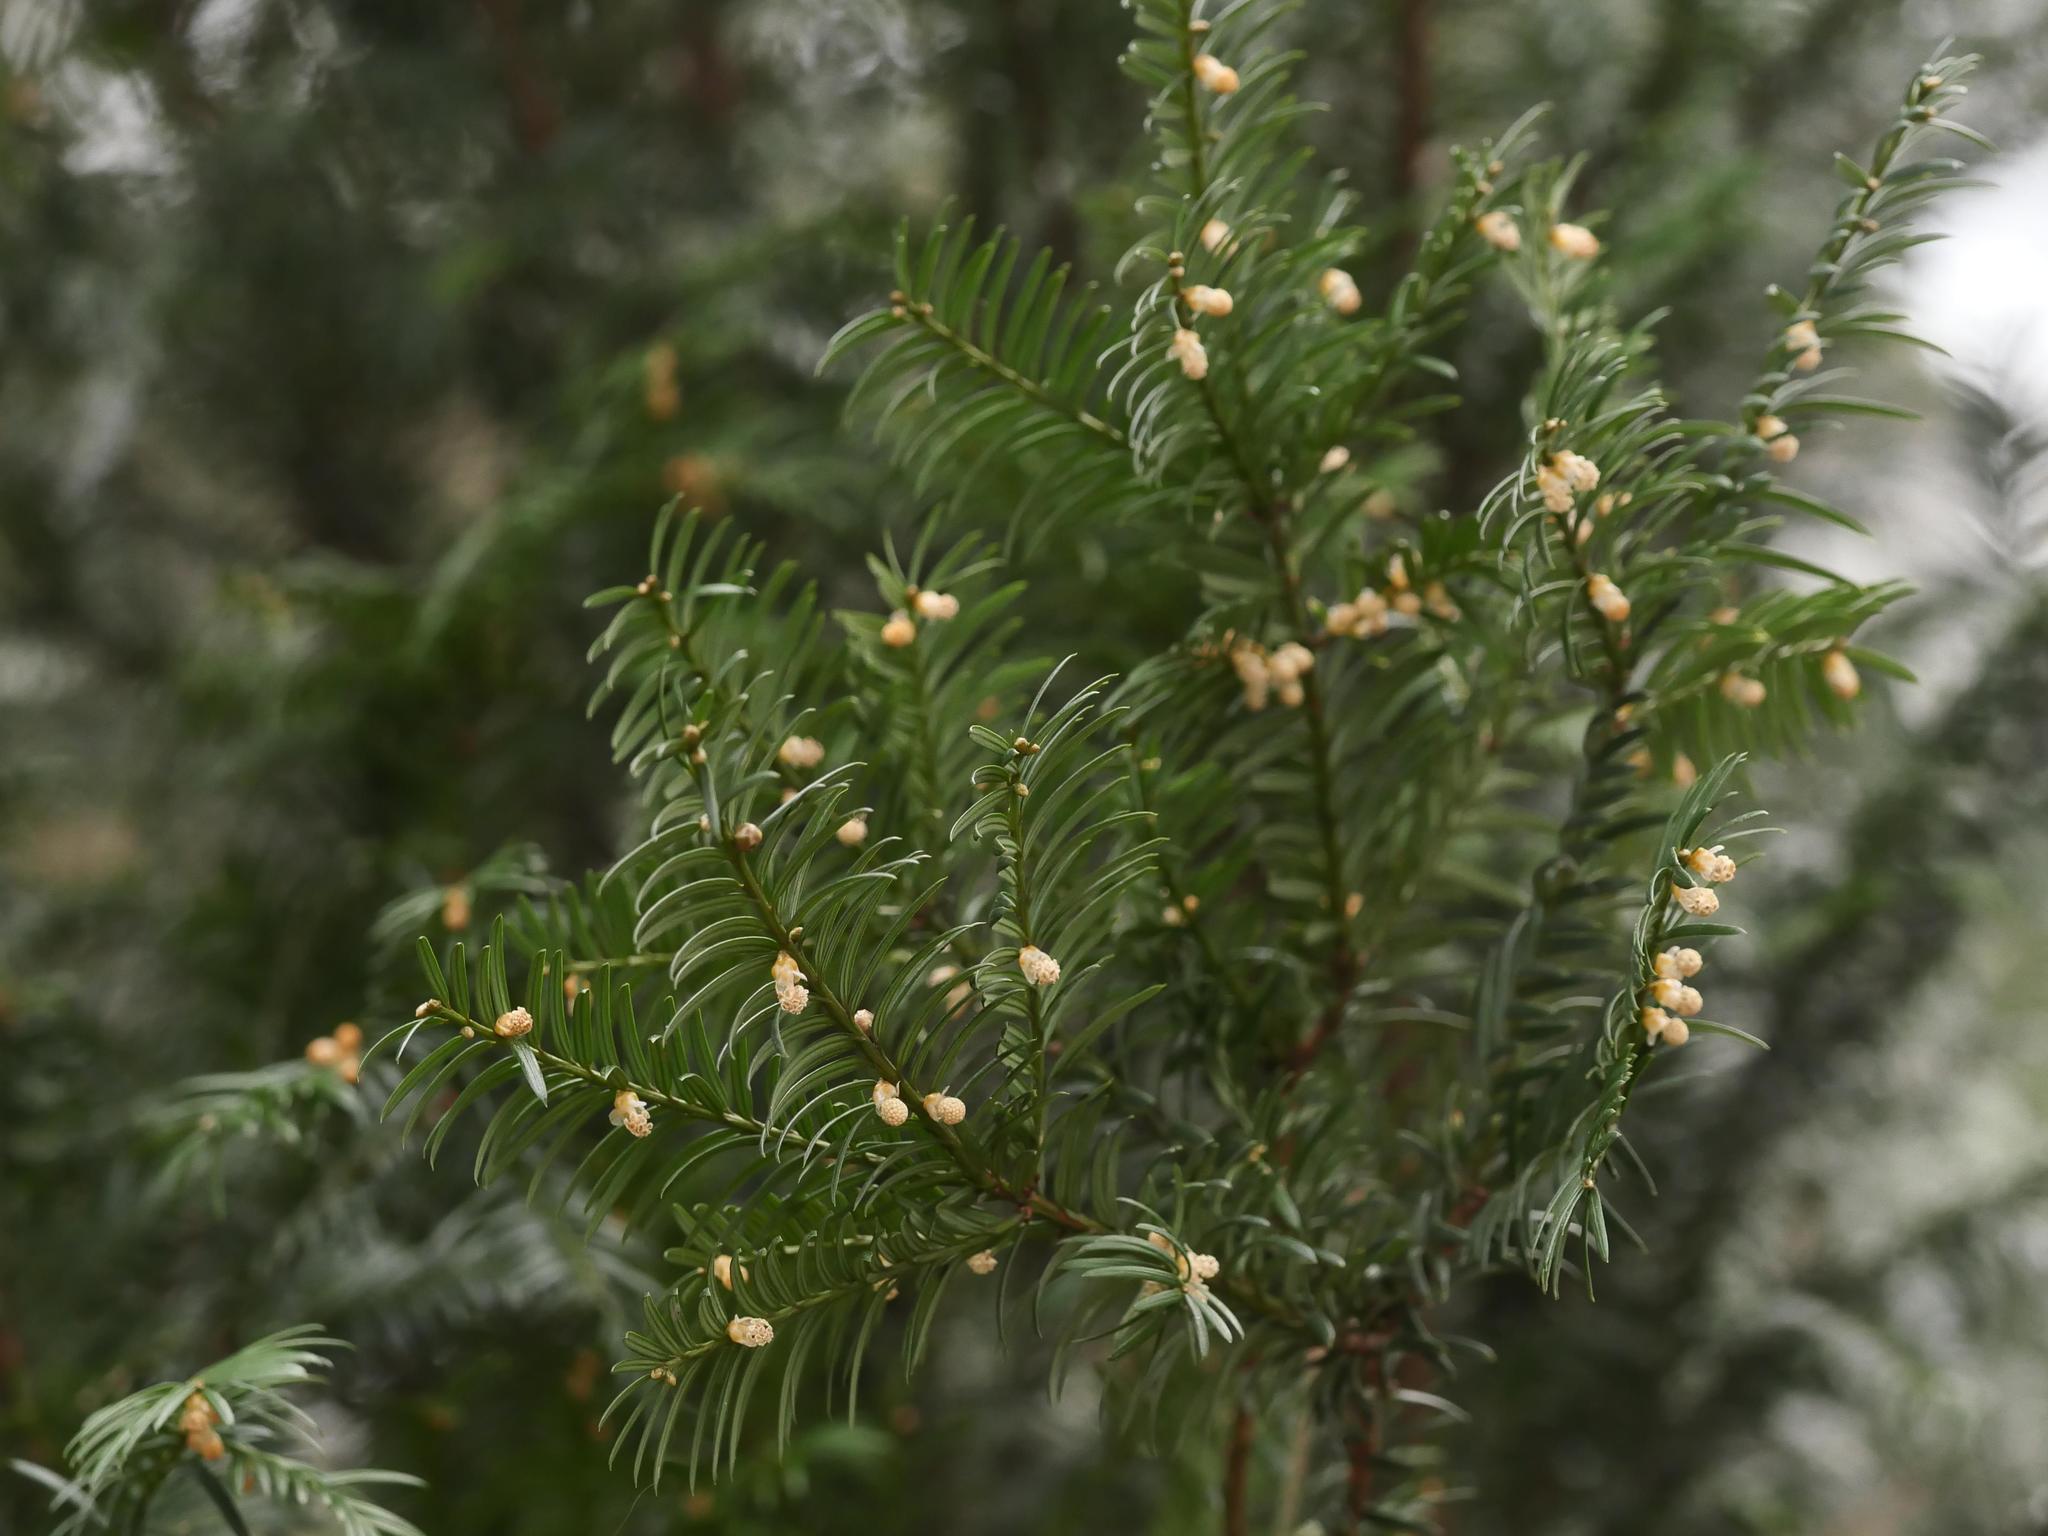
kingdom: Plantae
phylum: Tracheophyta
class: Pinopsida
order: Pinales
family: Taxaceae
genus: Taxus
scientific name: Taxus baccata
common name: Yew
